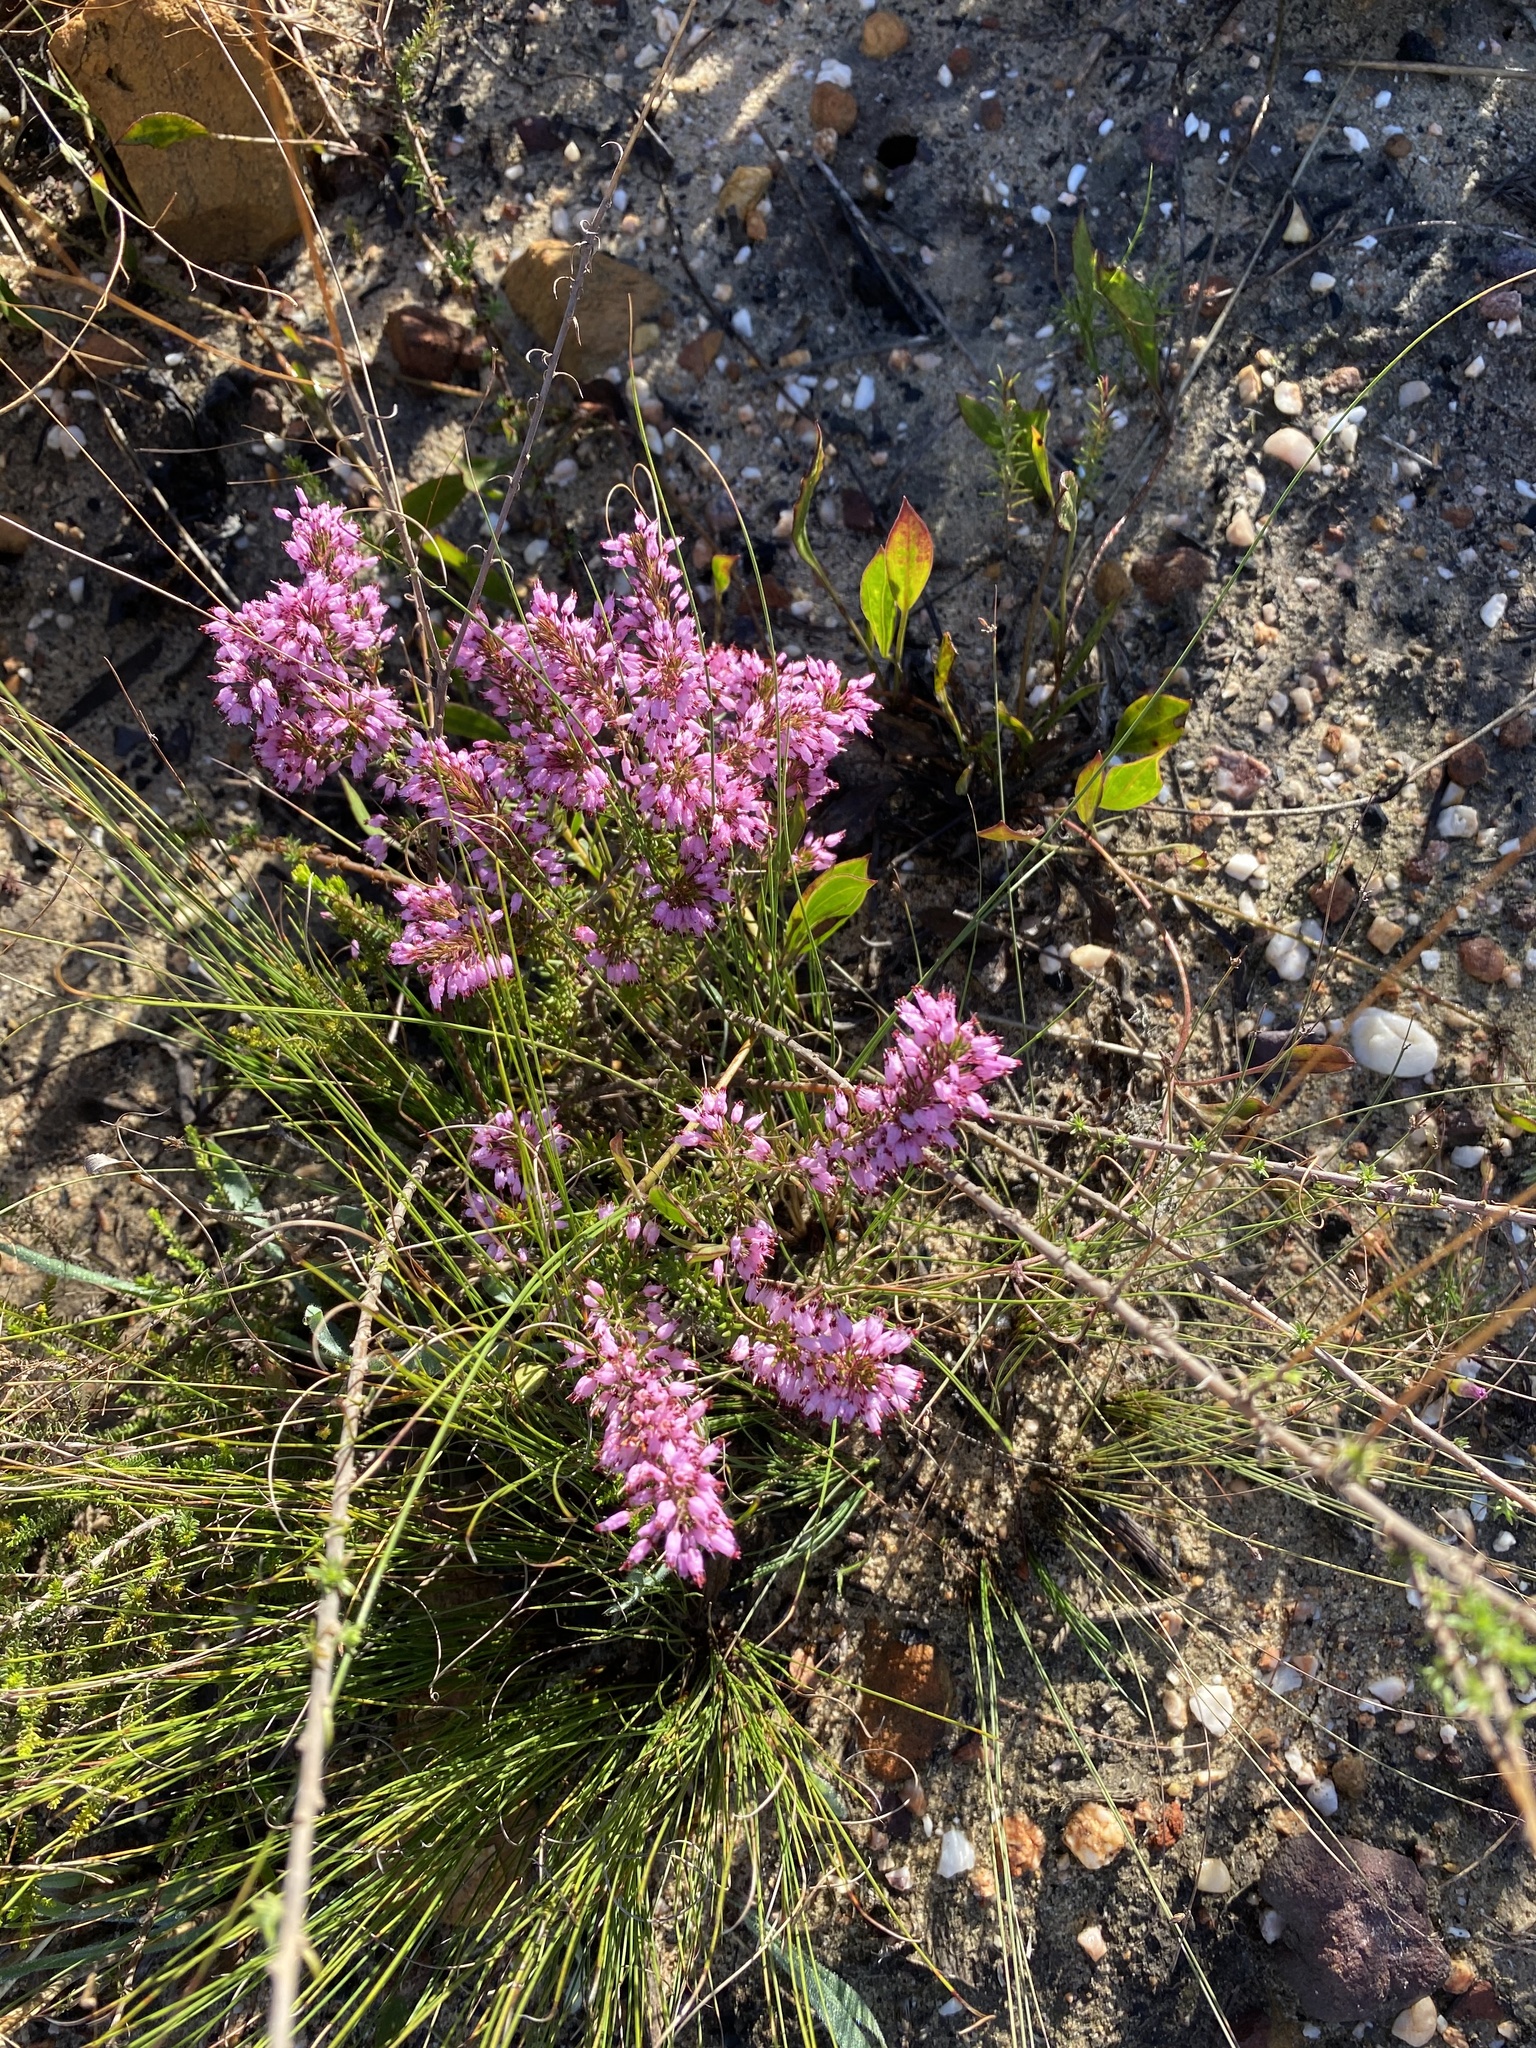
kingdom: Plantae
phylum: Tracheophyta
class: Magnoliopsida
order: Ericales
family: Ericaceae
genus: Erica
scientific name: Erica nudiflora
